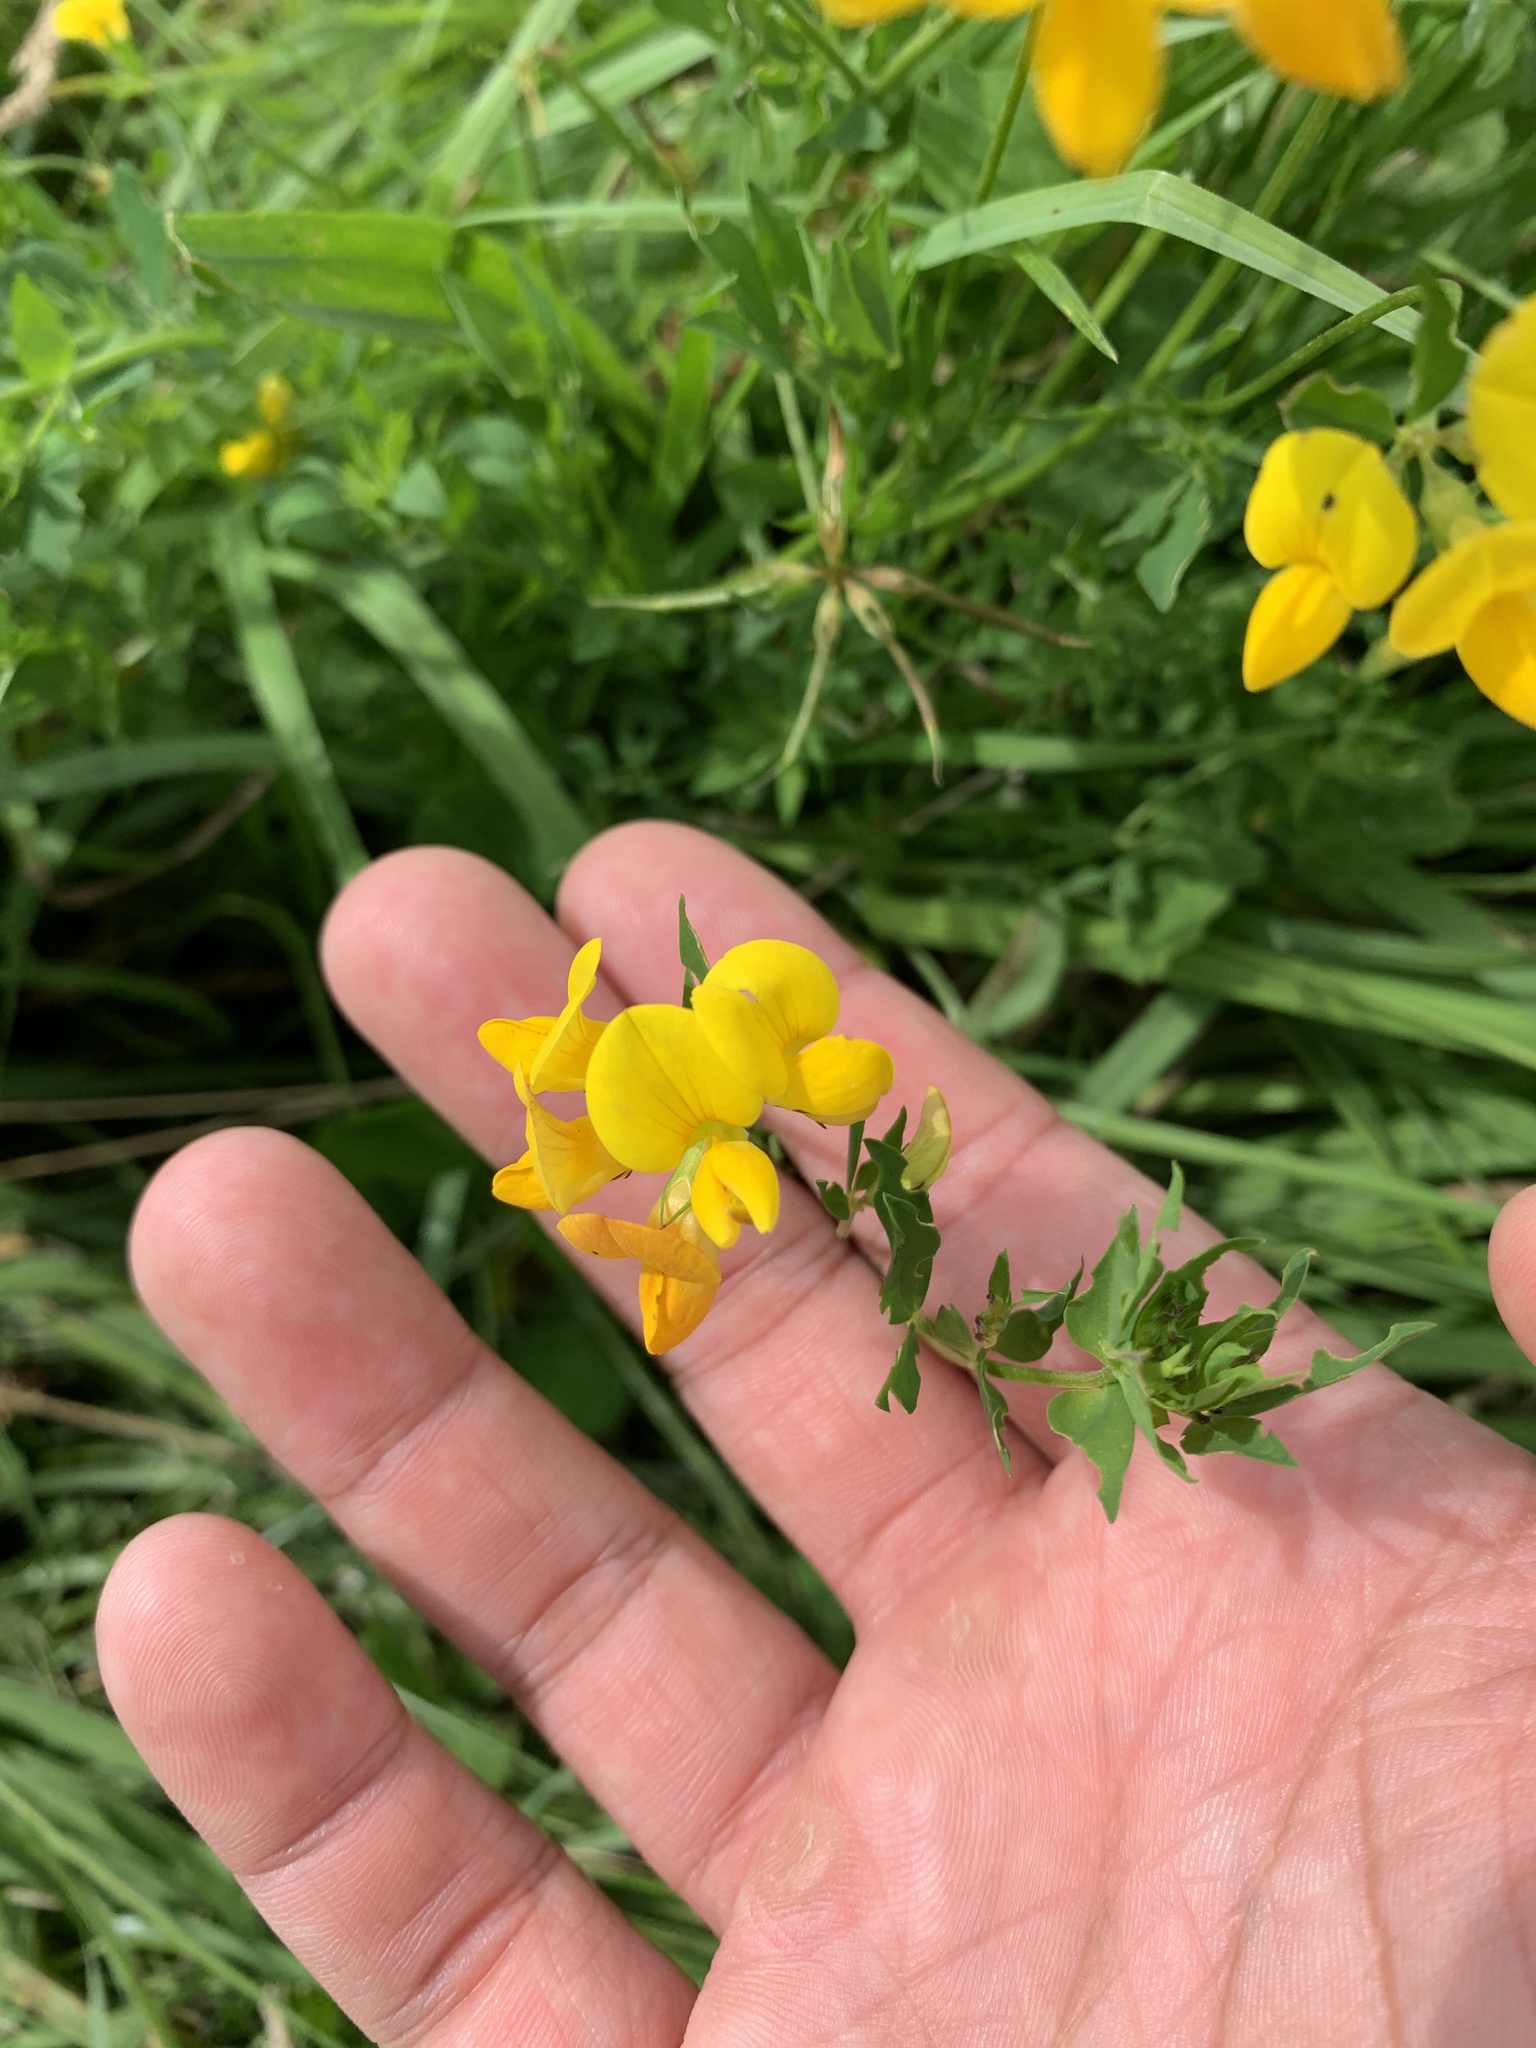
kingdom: Plantae
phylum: Tracheophyta
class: Magnoliopsida
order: Fabales
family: Fabaceae
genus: Lotus
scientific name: Lotus corniculatus
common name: Common bird's-foot-trefoil
